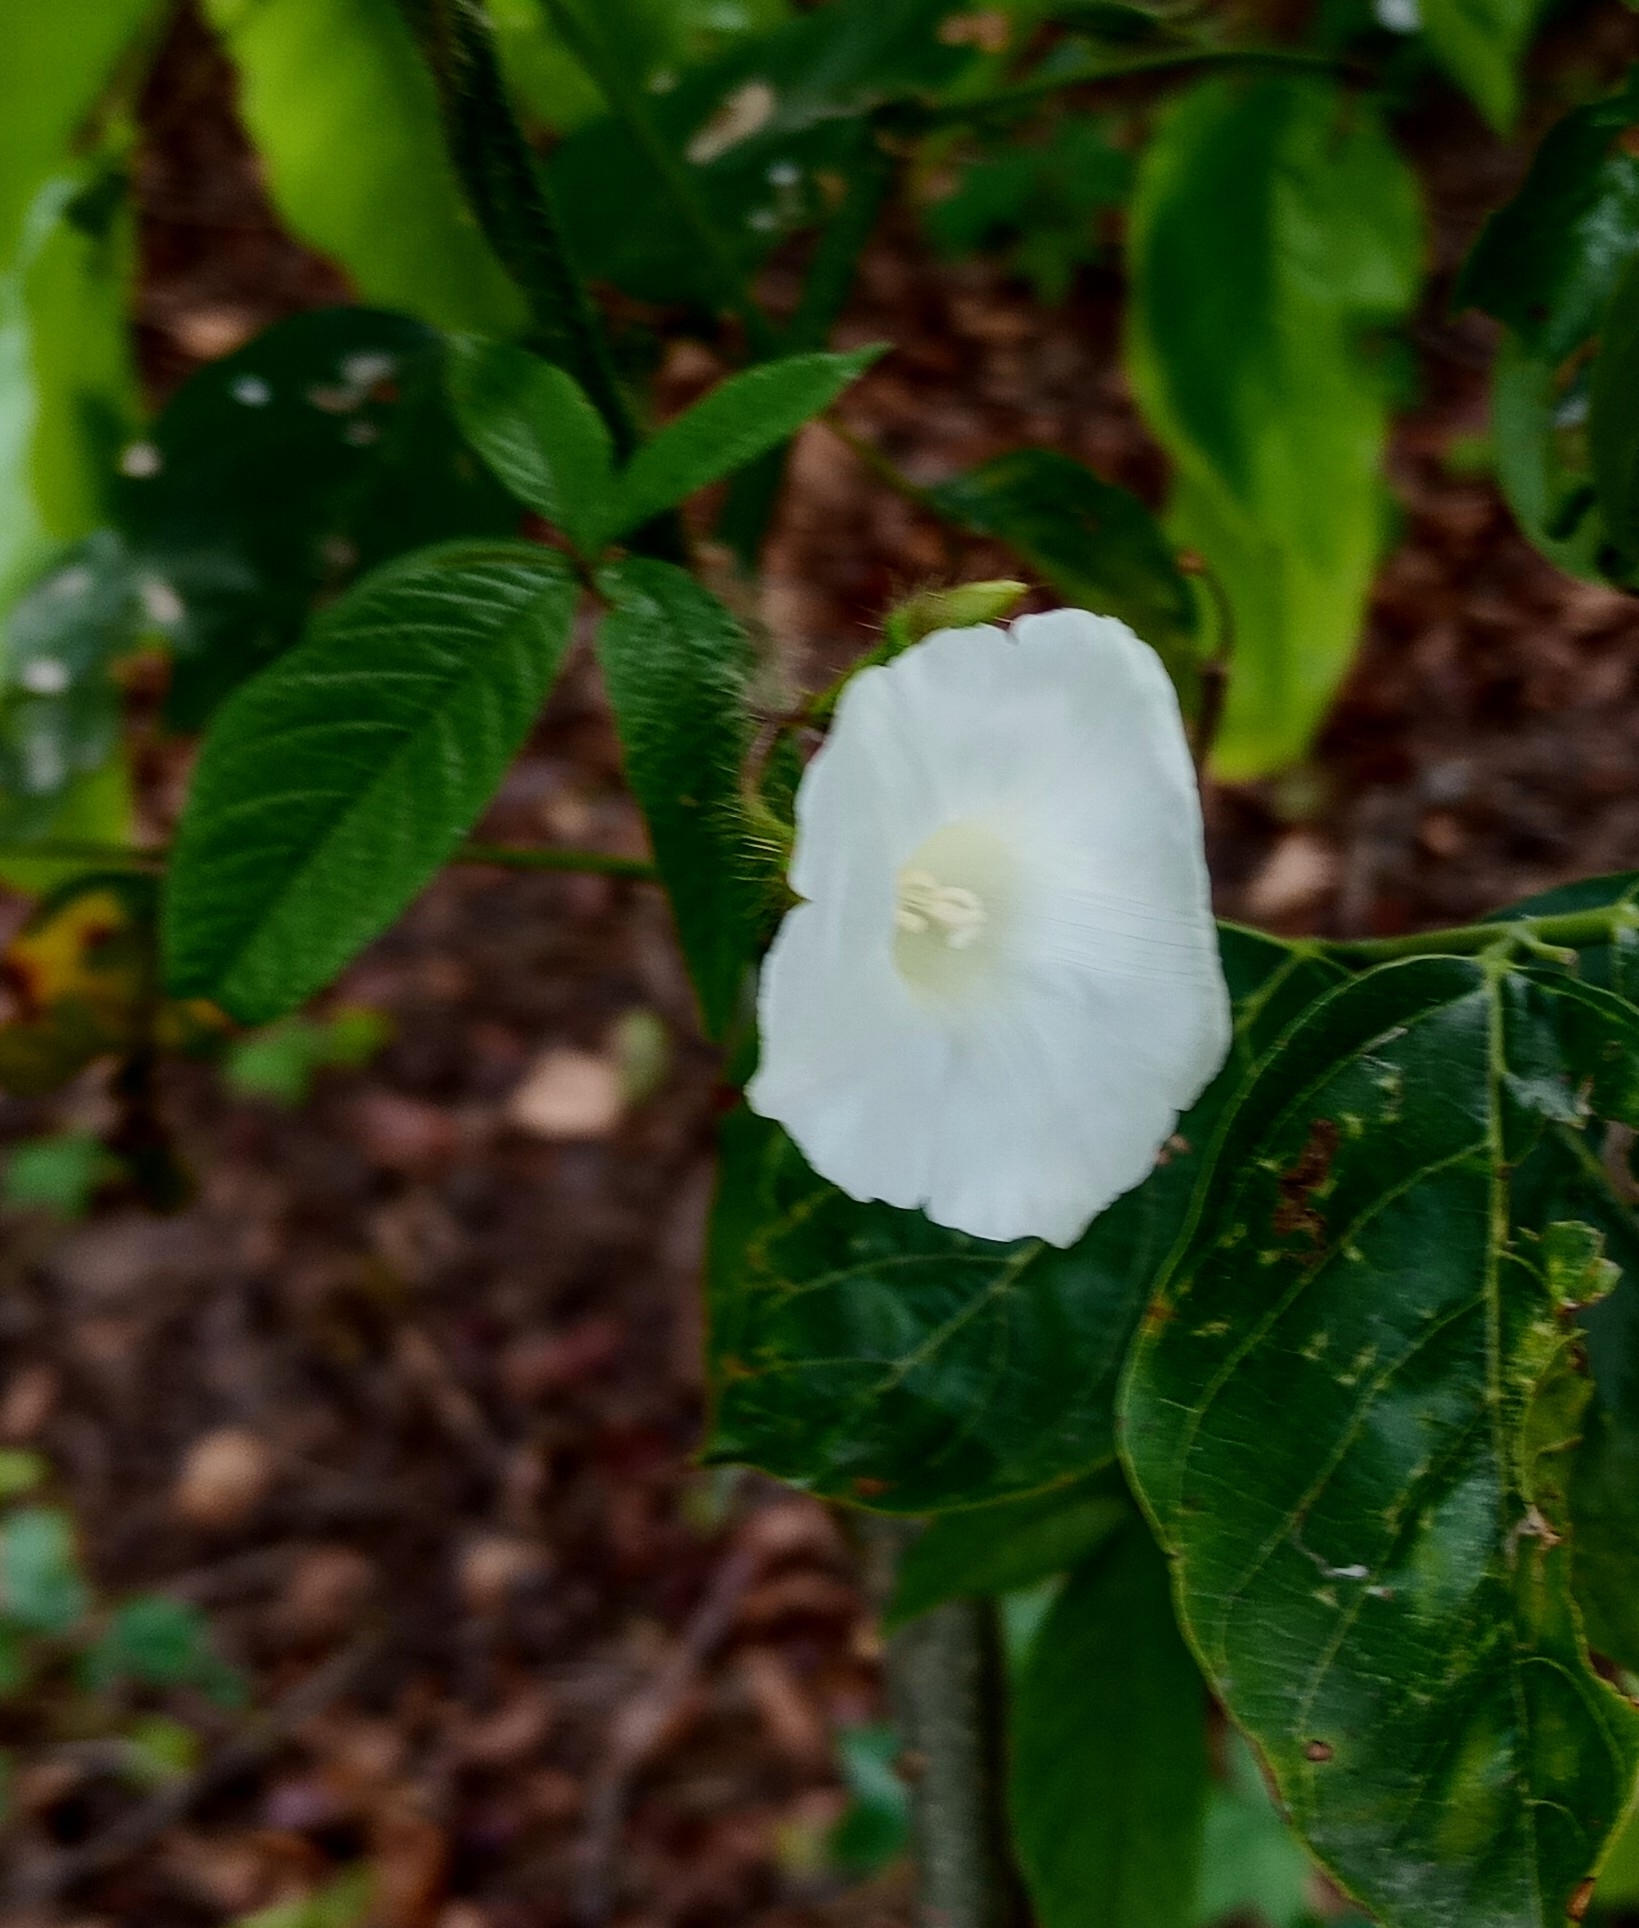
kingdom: Plantae
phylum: Tracheophyta
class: Magnoliopsida
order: Solanales
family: Convolvulaceae
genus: Distimake
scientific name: Distimake aegyptius
